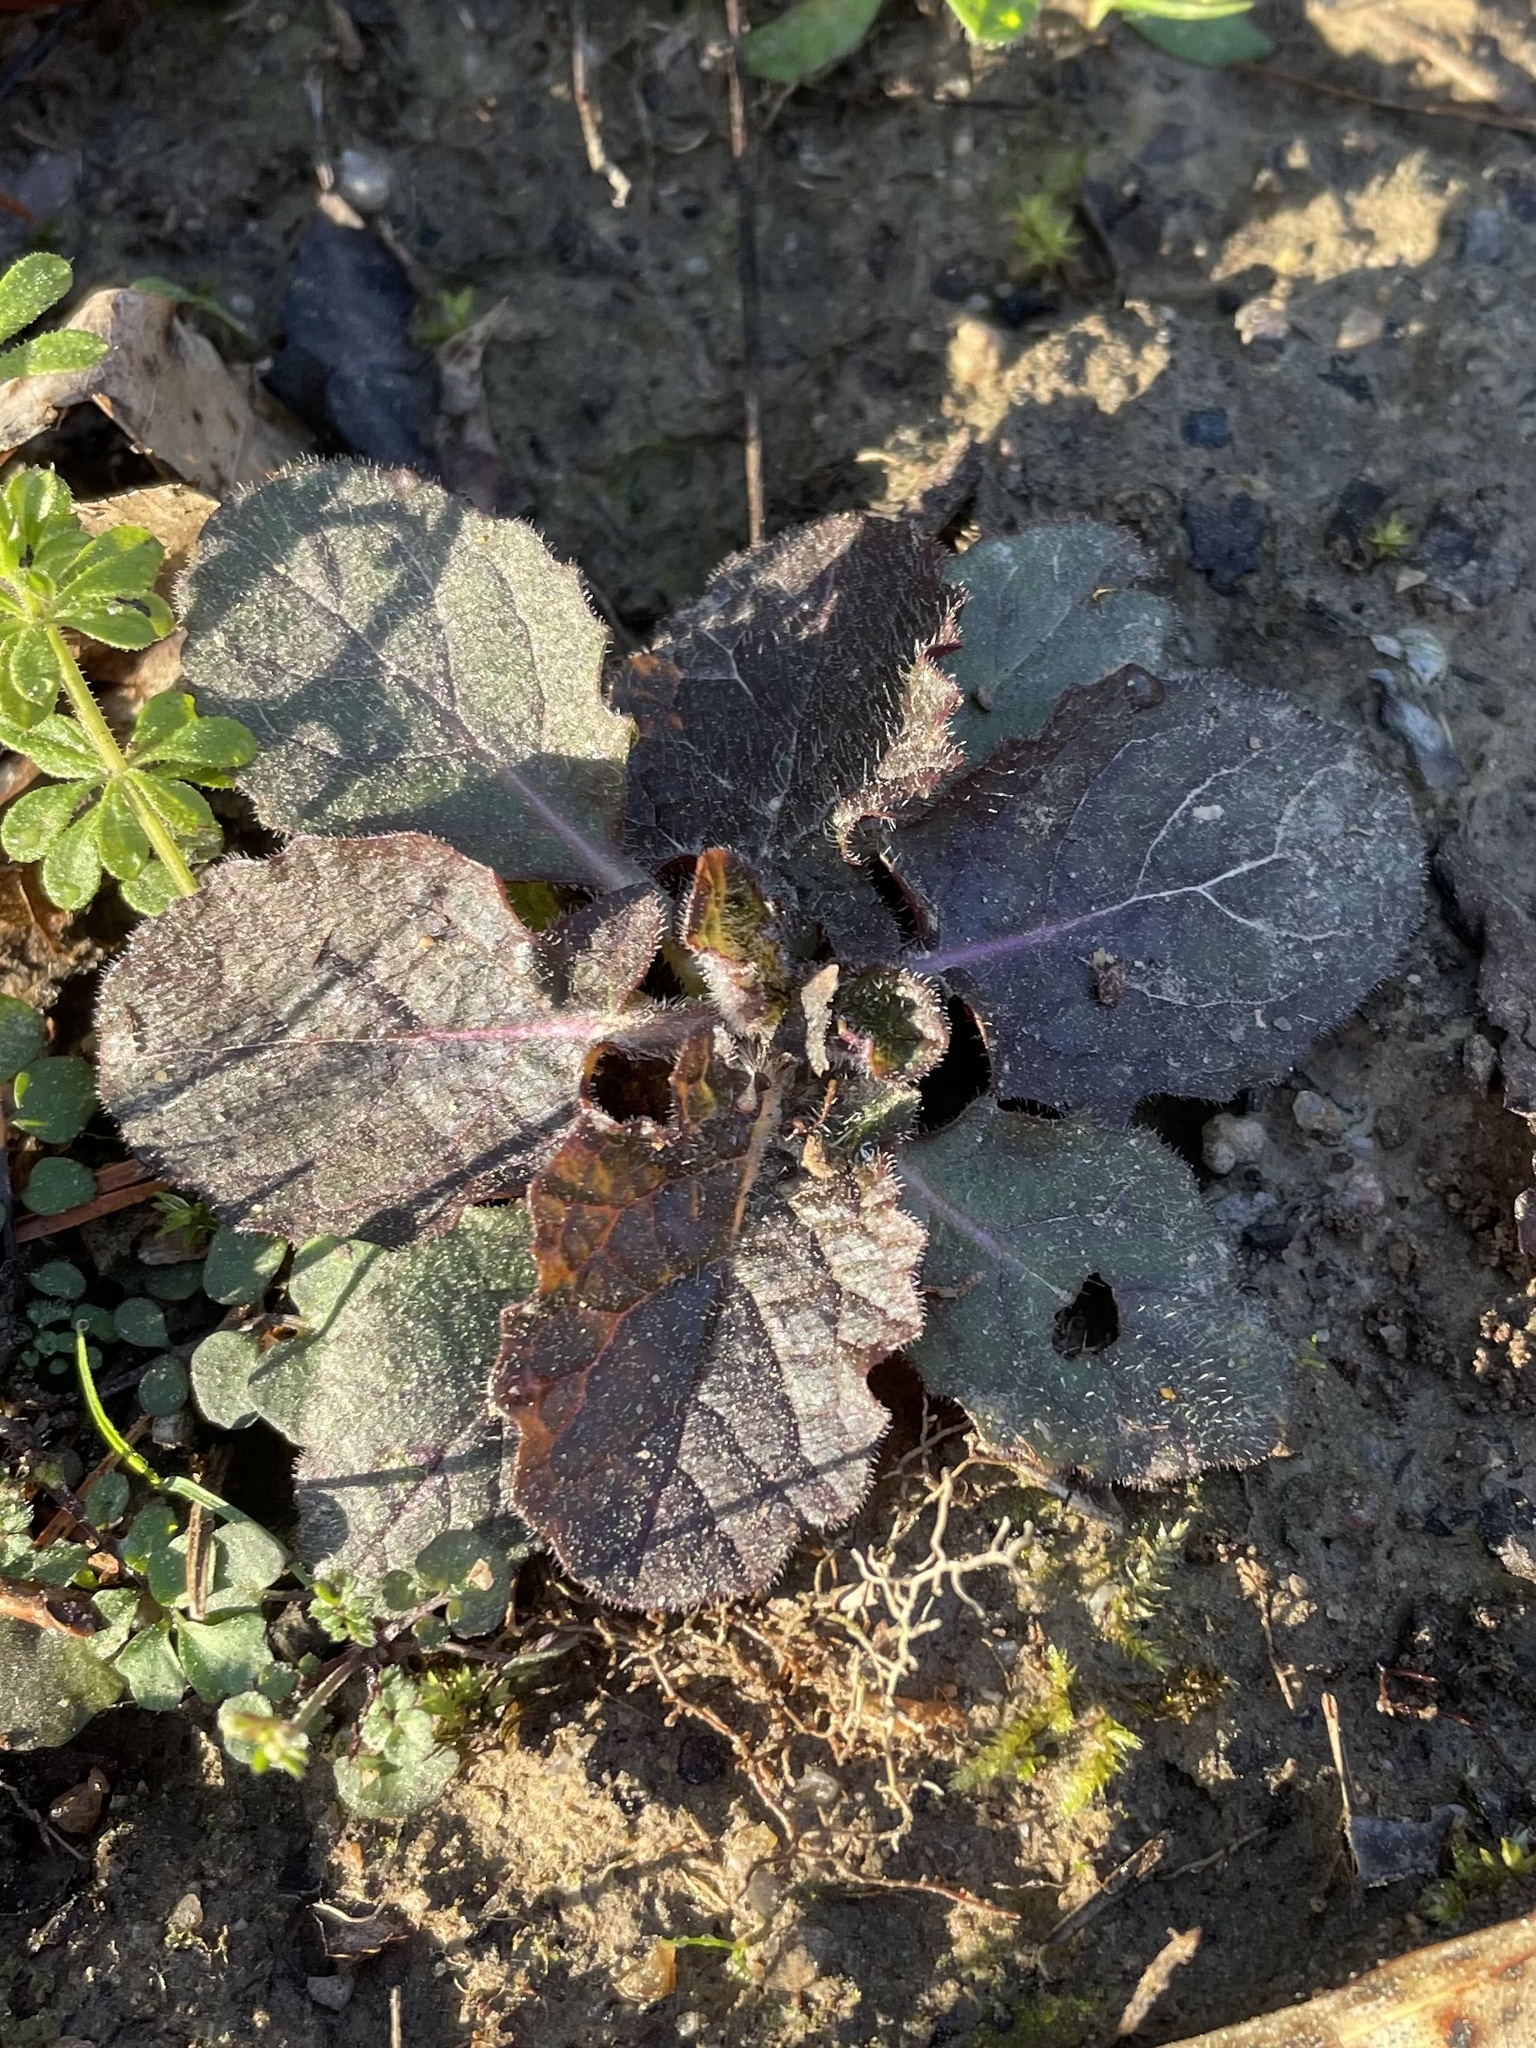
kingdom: Plantae
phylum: Tracheophyta
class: Magnoliopsida
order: Lamiales
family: Lamiaceae
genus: Salvia
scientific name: Salvia lyrata
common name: Cancerweed
